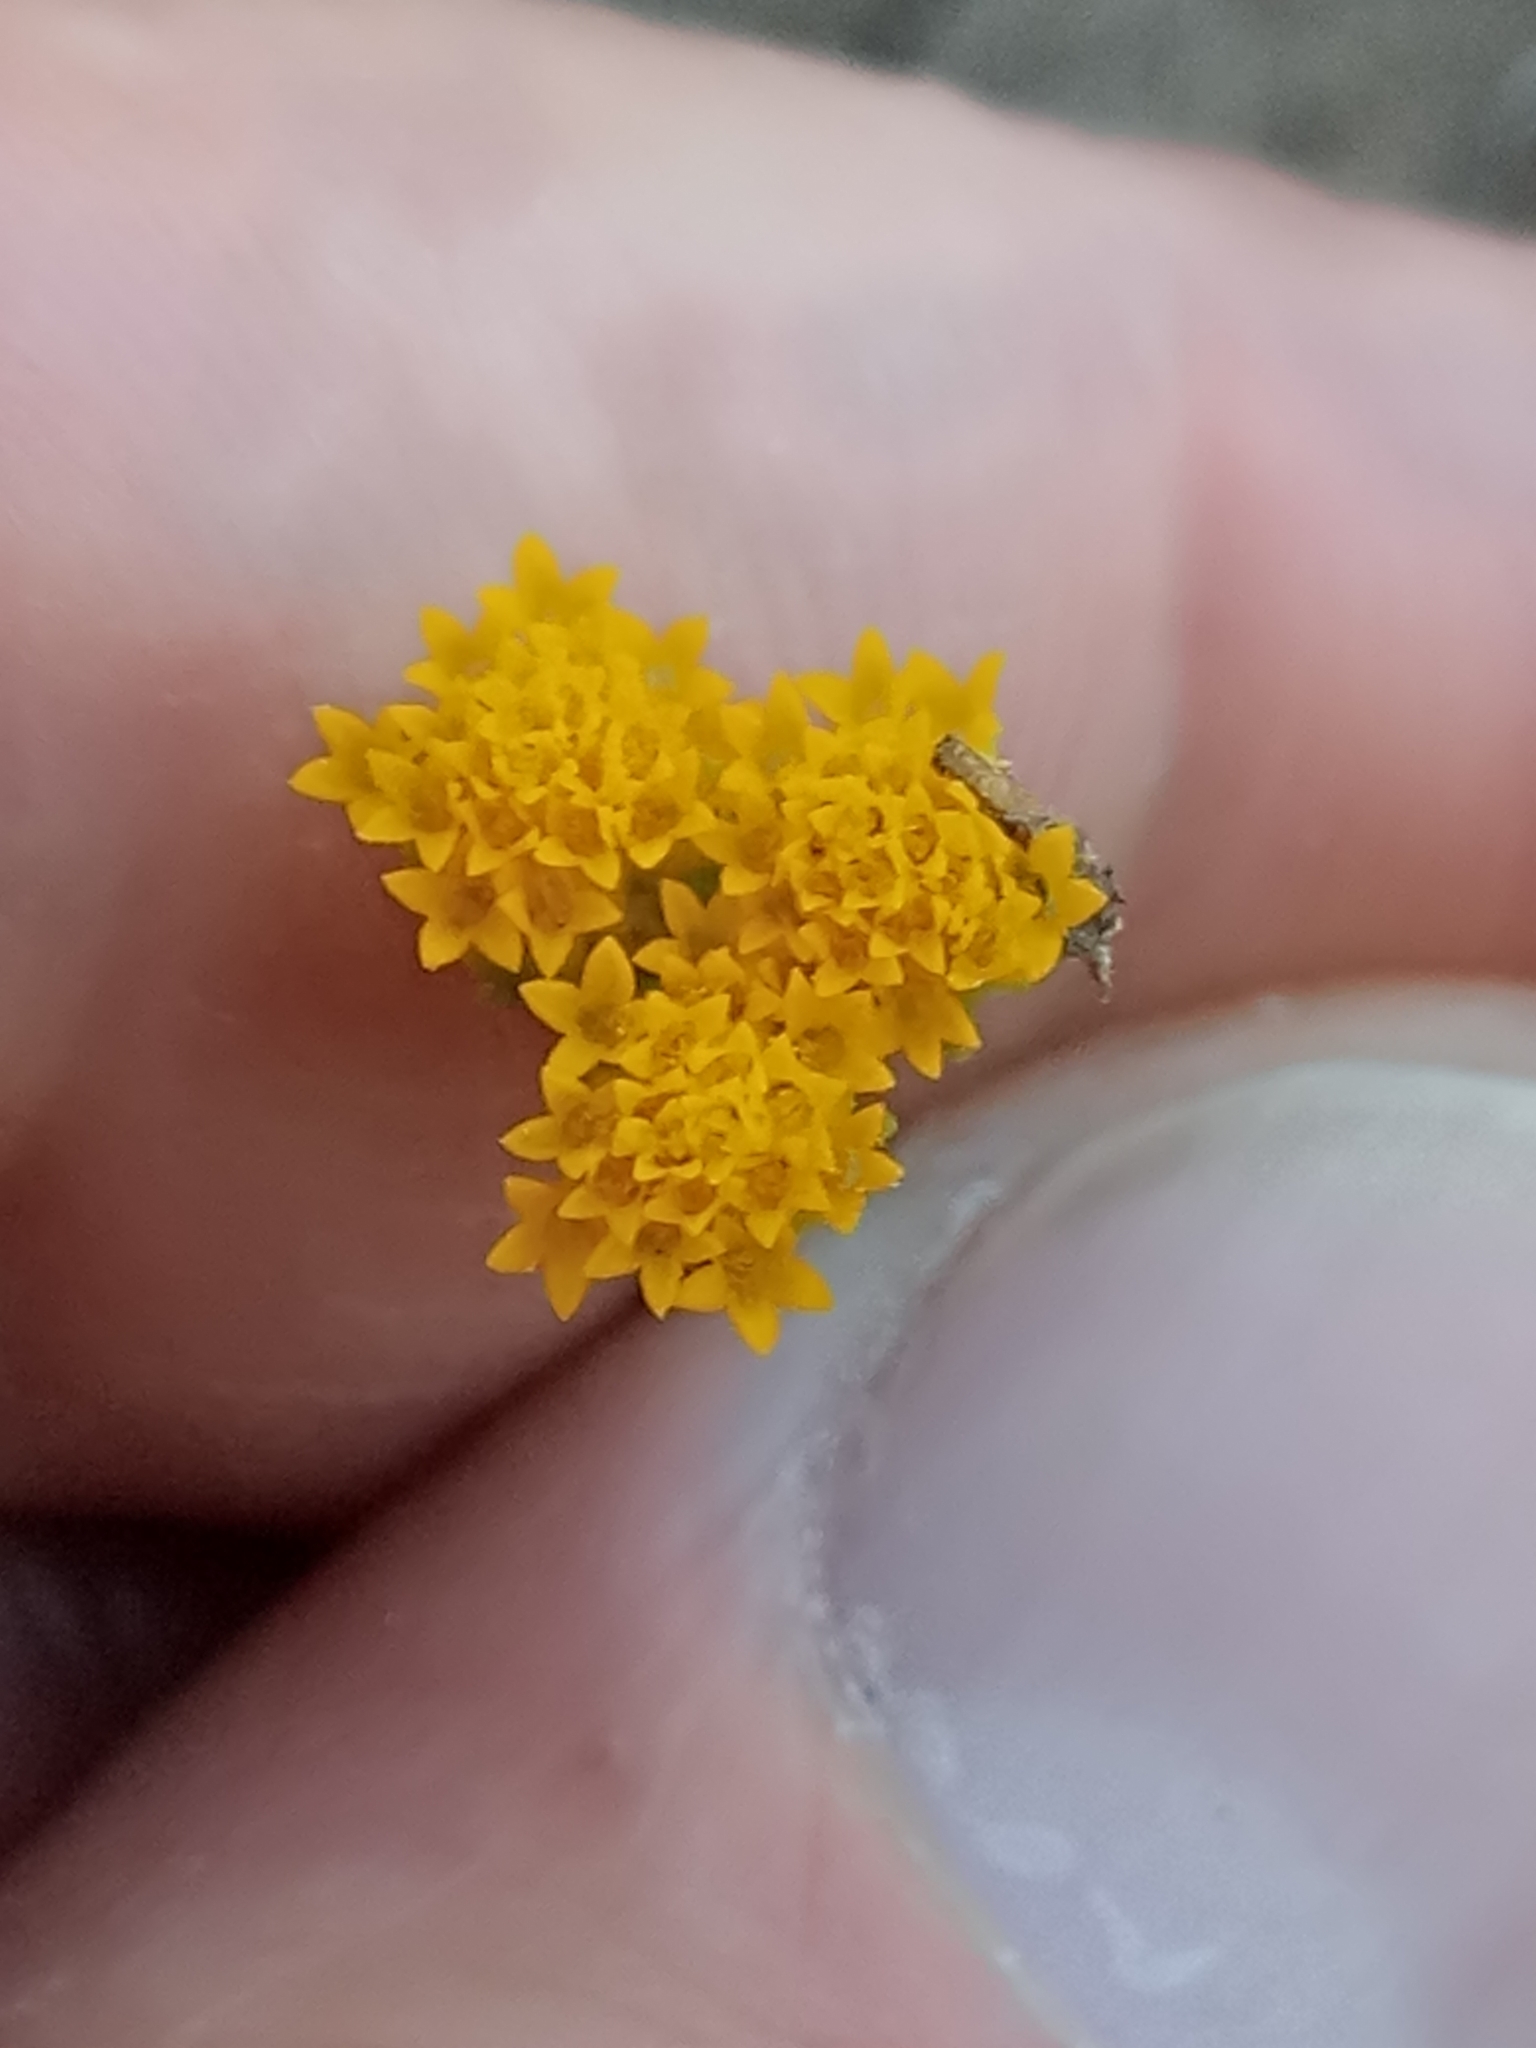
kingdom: Plantae
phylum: Tracheophyta
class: Magnoliopsida
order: Asterales
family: Asteraceae
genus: Lonas
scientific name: Lonas annua
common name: African daisy
